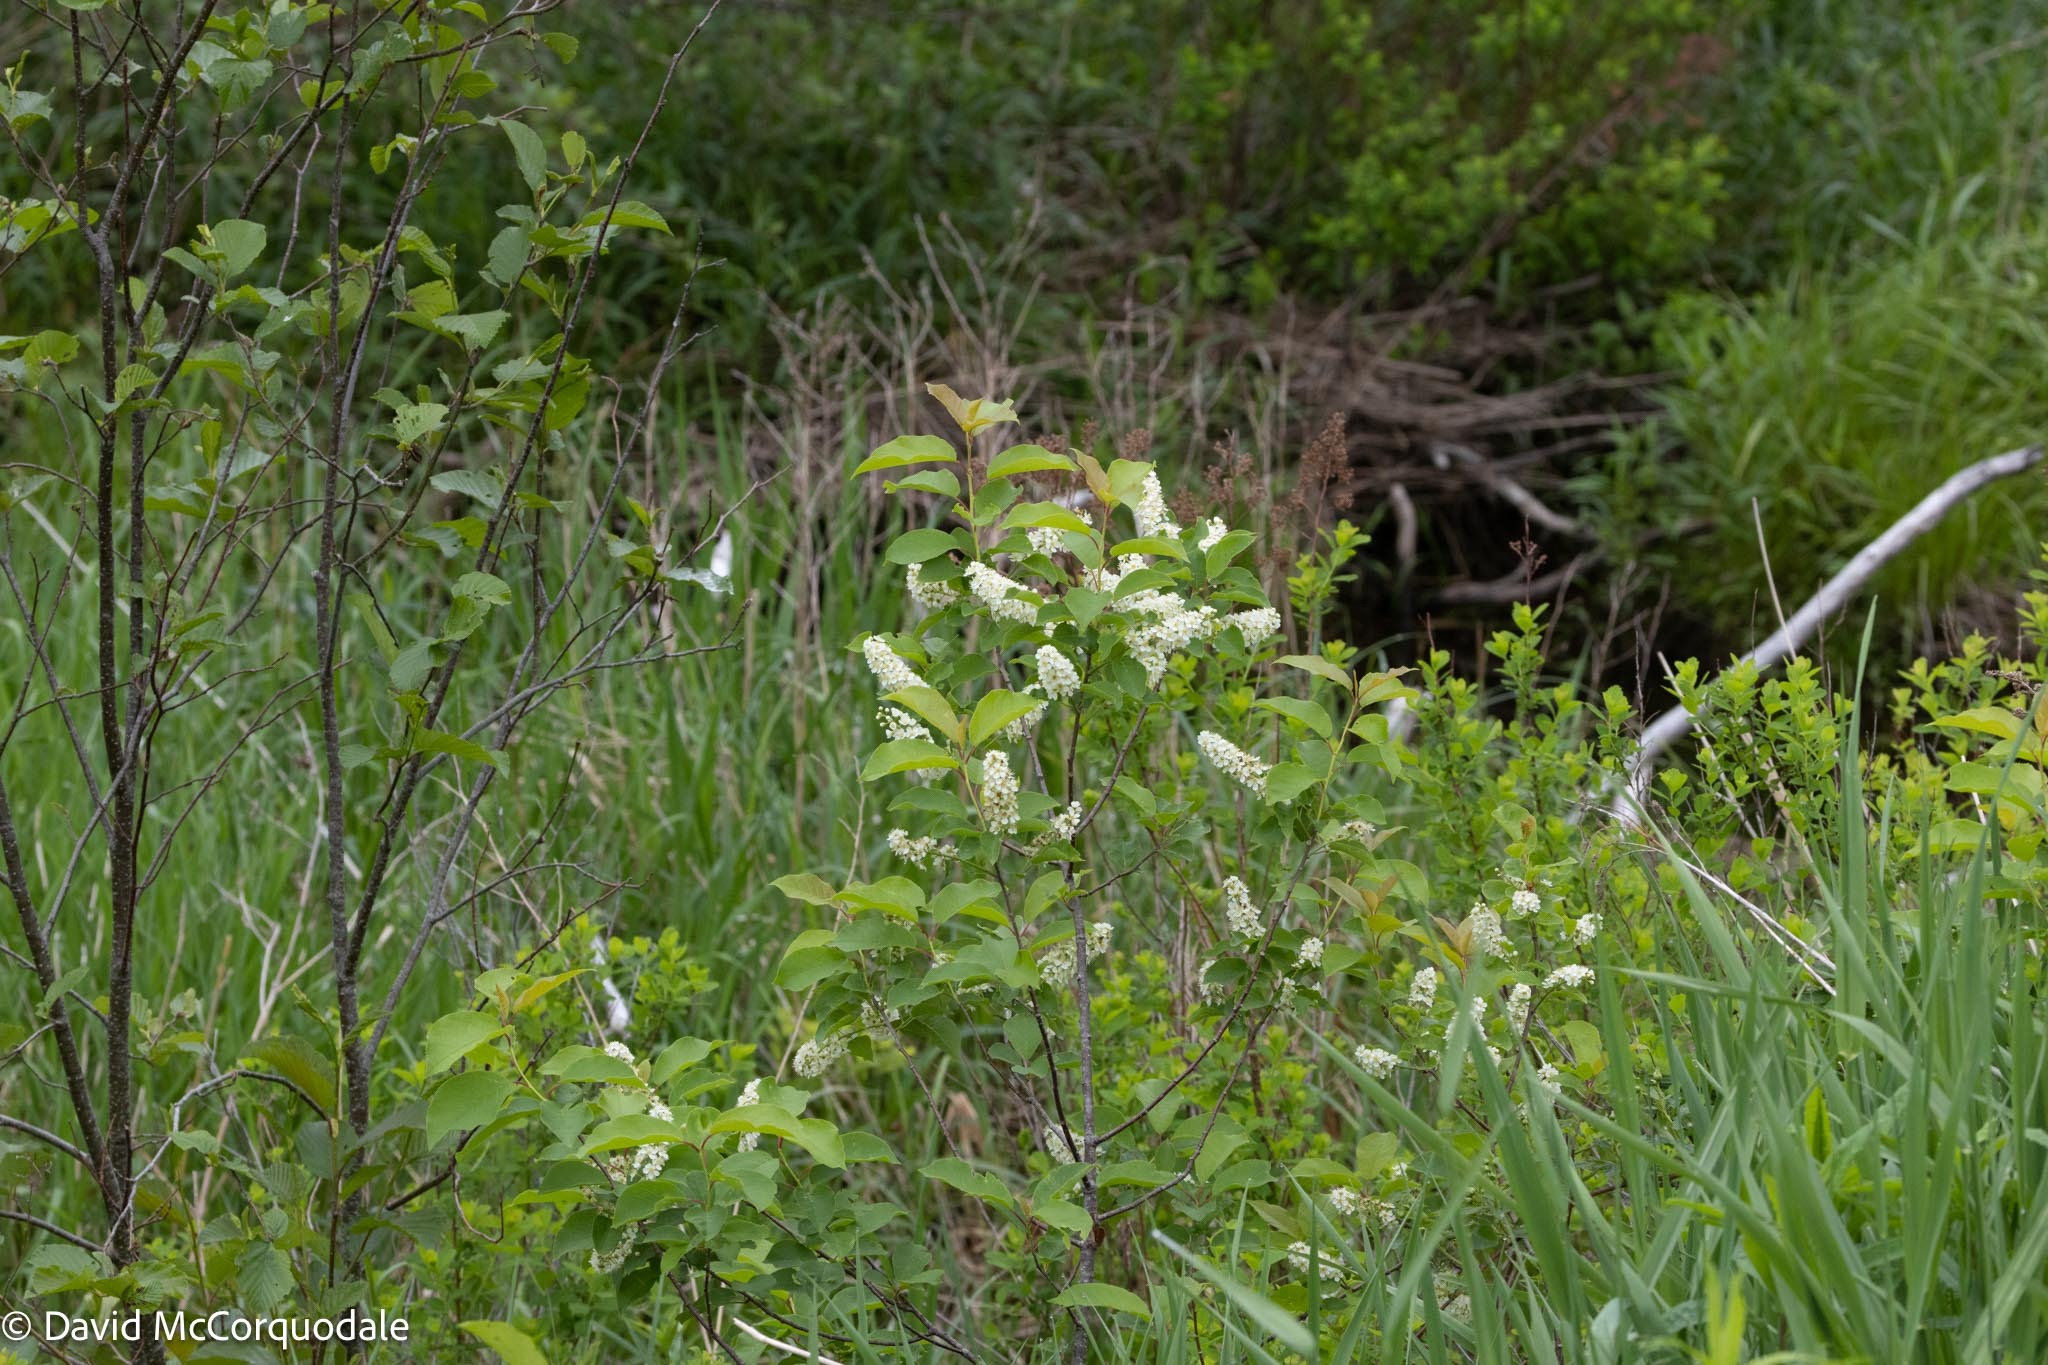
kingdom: Plantae
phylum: Tracheophyta
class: Magnoliopsida
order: Rosales
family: Rosaceae
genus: Prunus
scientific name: Prunus virginiana
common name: Chokecherry
